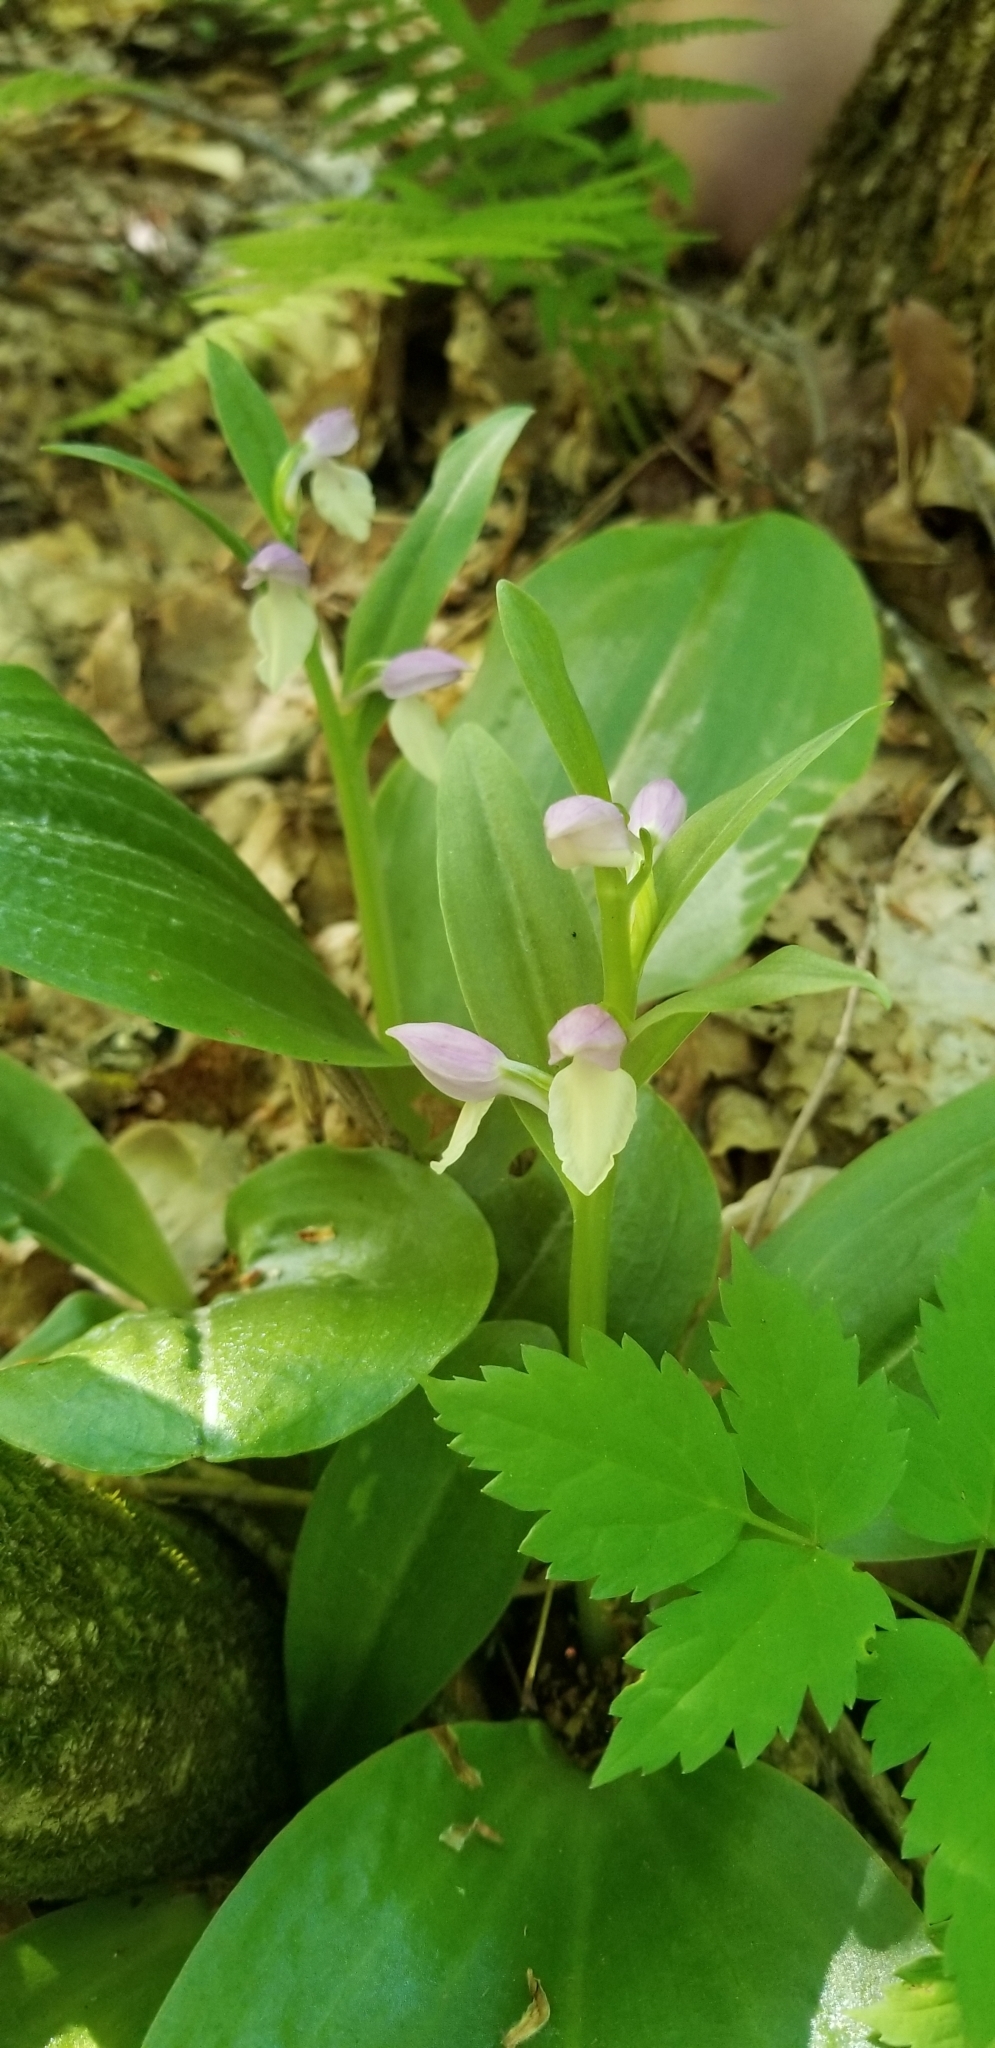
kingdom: Plantae
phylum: Tracheophyta
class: Liliopsida
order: Asparagales
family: Orchidaceae
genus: Galearis
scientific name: Galearis spectabilis
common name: Purple-hooded orchis
